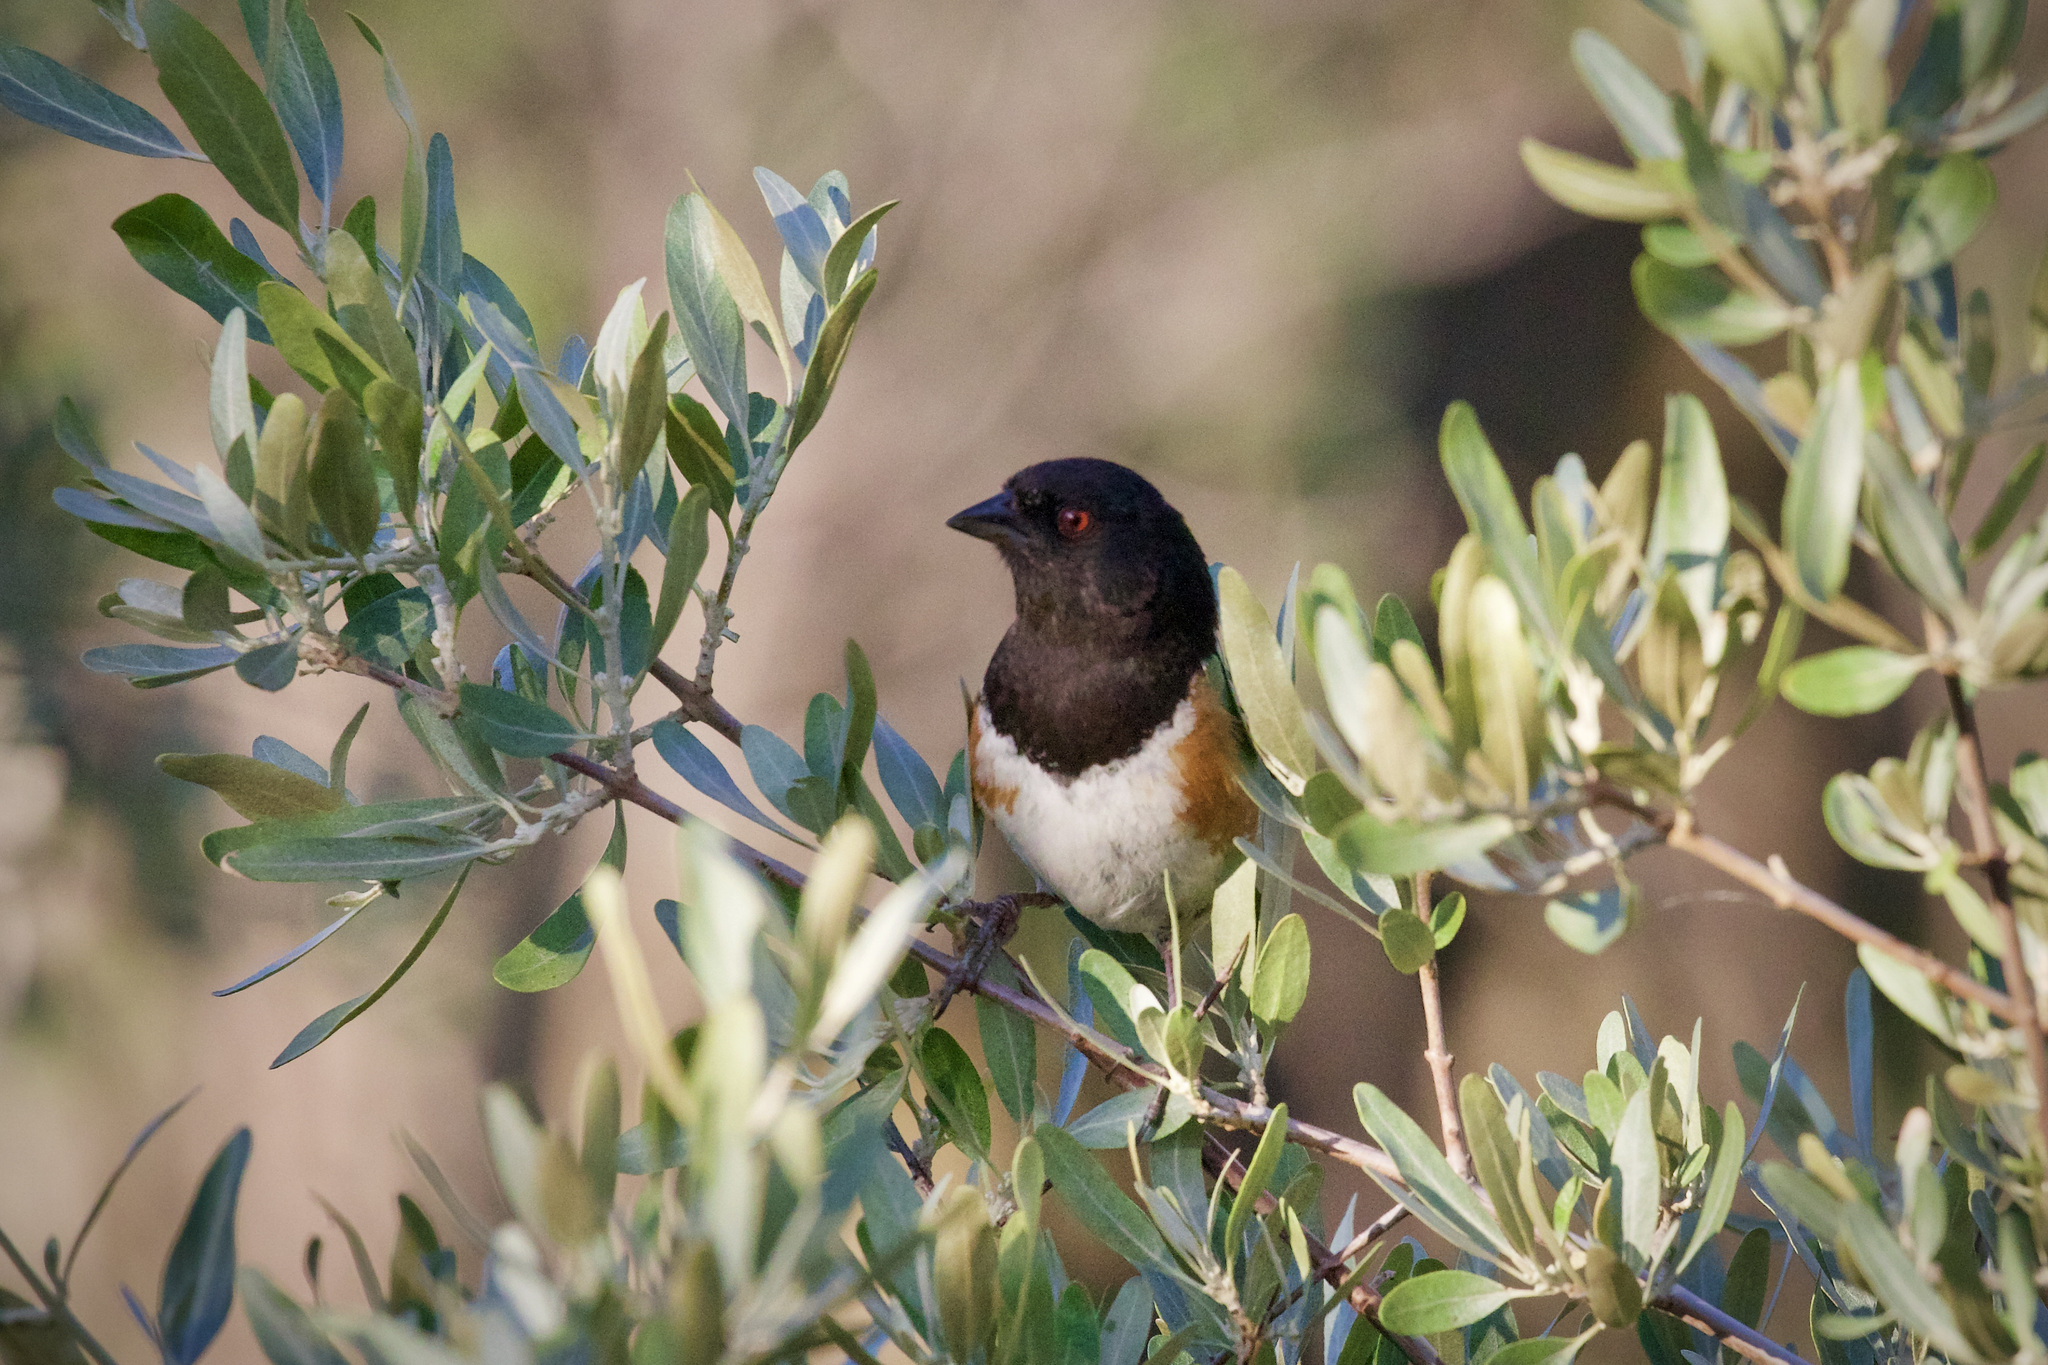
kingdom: Animalia
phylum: Chordata
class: Aves
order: Passeriformes
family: Passerellidae
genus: Pipilo
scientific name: Pipilo maculatus
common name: Spotted towhee
